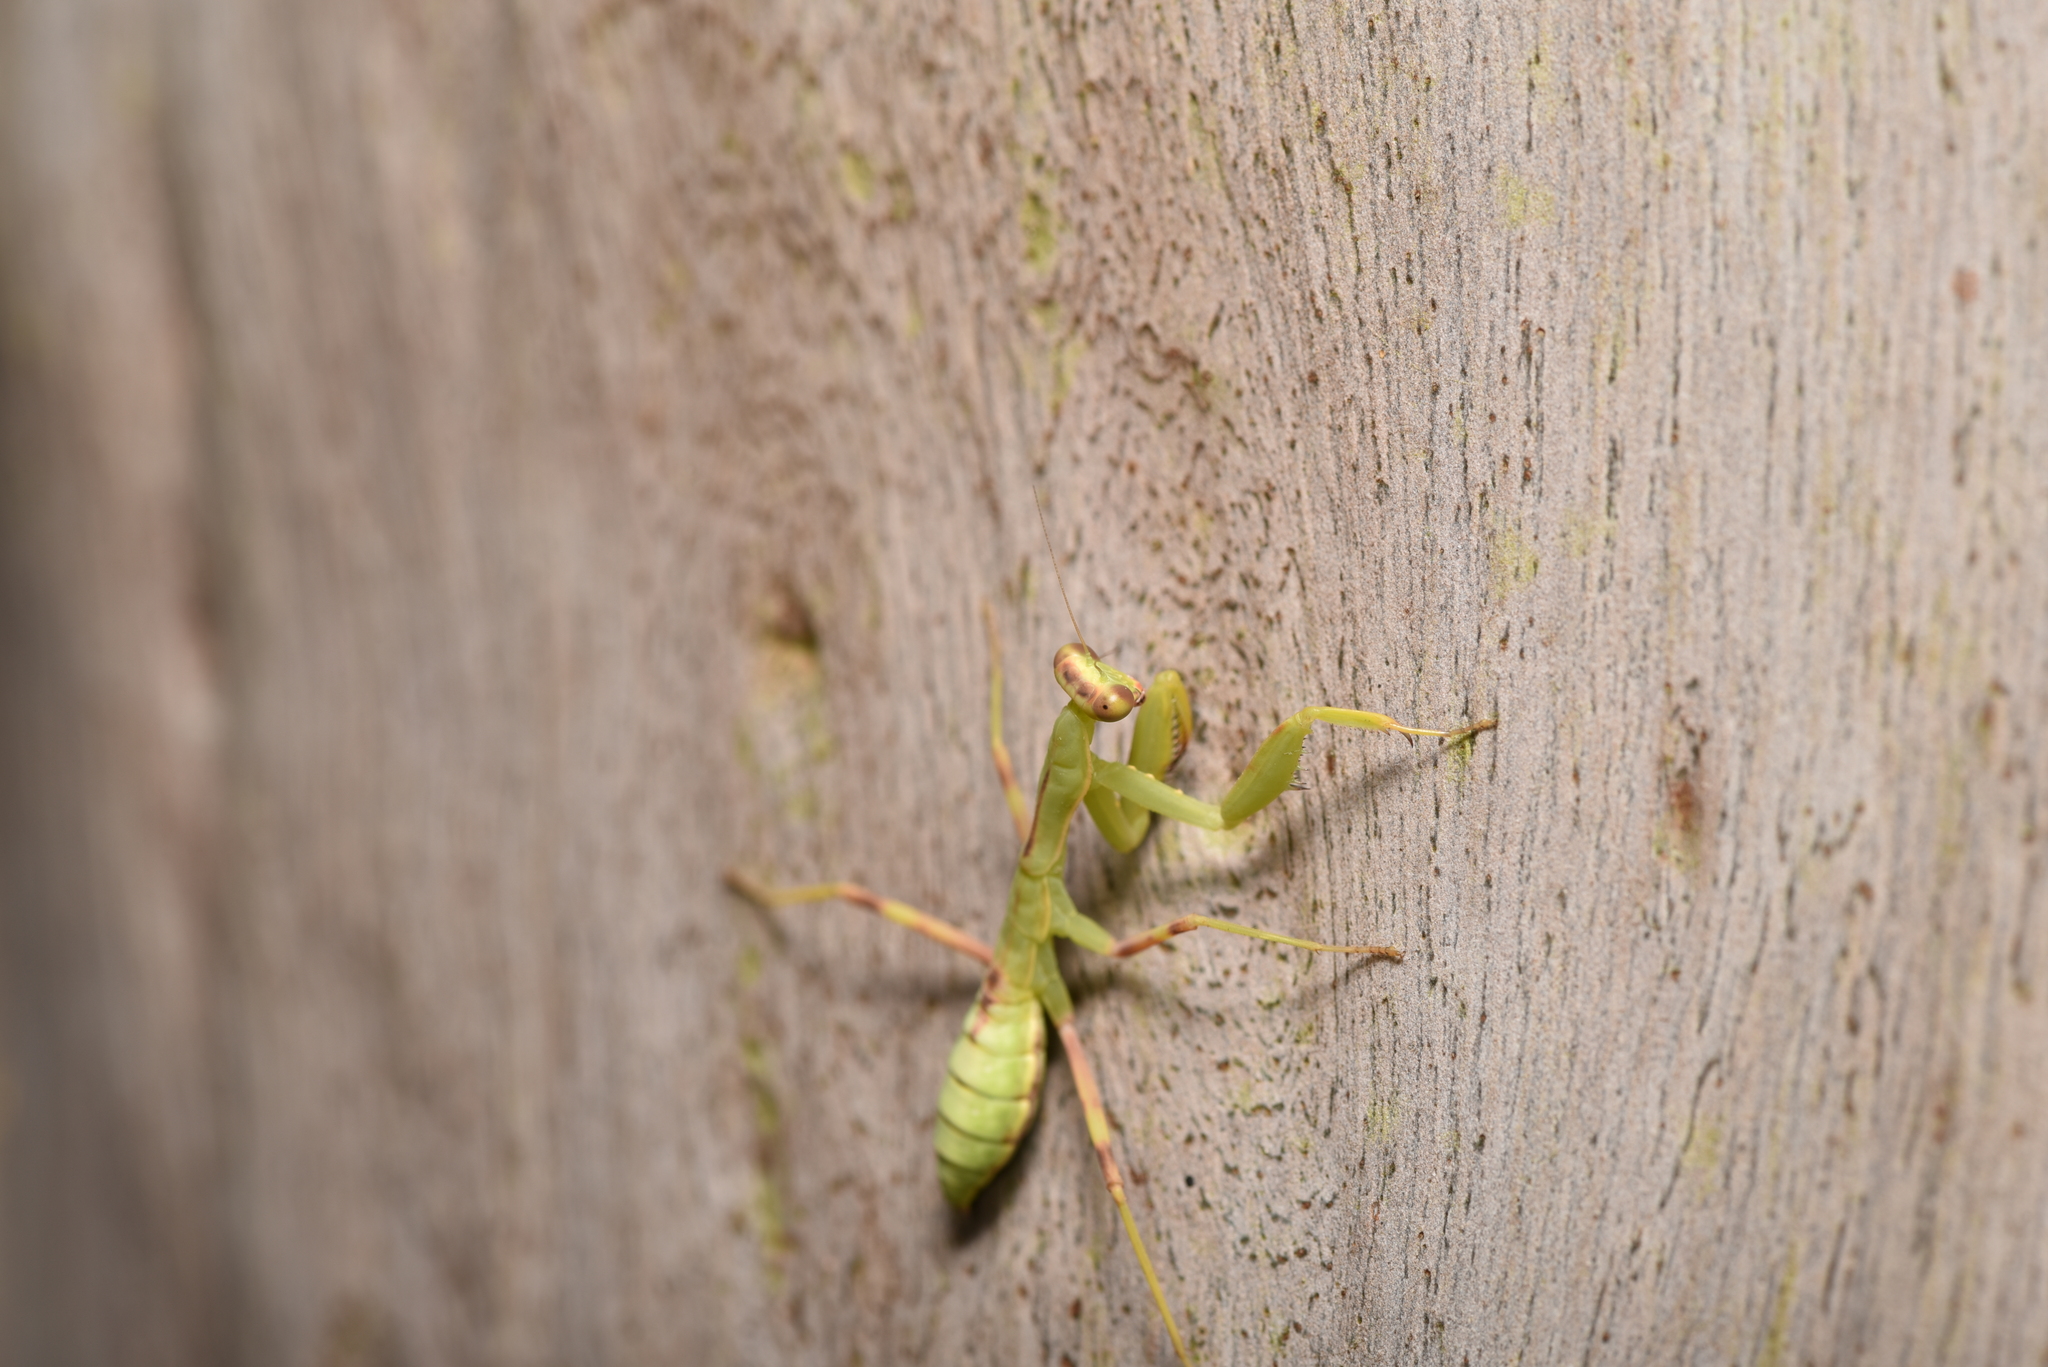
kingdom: Animalia
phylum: Arthropoda
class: Insecta
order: Mantodea
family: Mantidae
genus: Hierodula
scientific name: Hierodula patellifera
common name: Asian mantis
